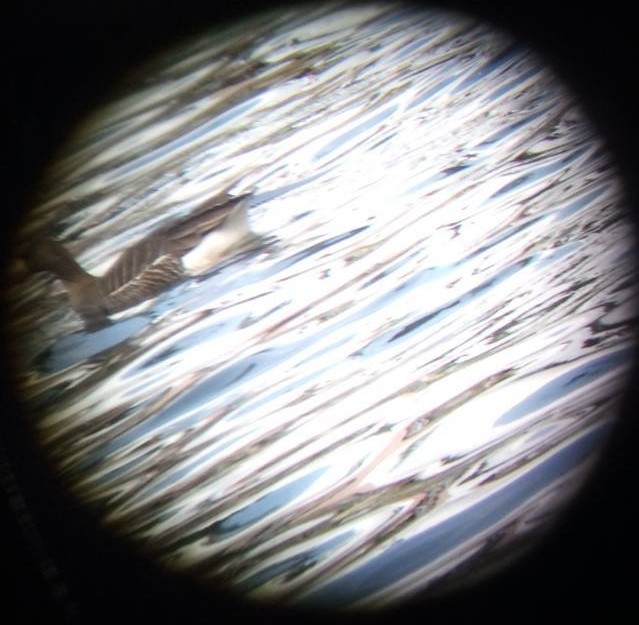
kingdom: Animalia
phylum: Chordata
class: Aves
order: Anseriformes
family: Anatidae
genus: Anser
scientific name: Anser albifrons
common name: Greater white-fronted goose
